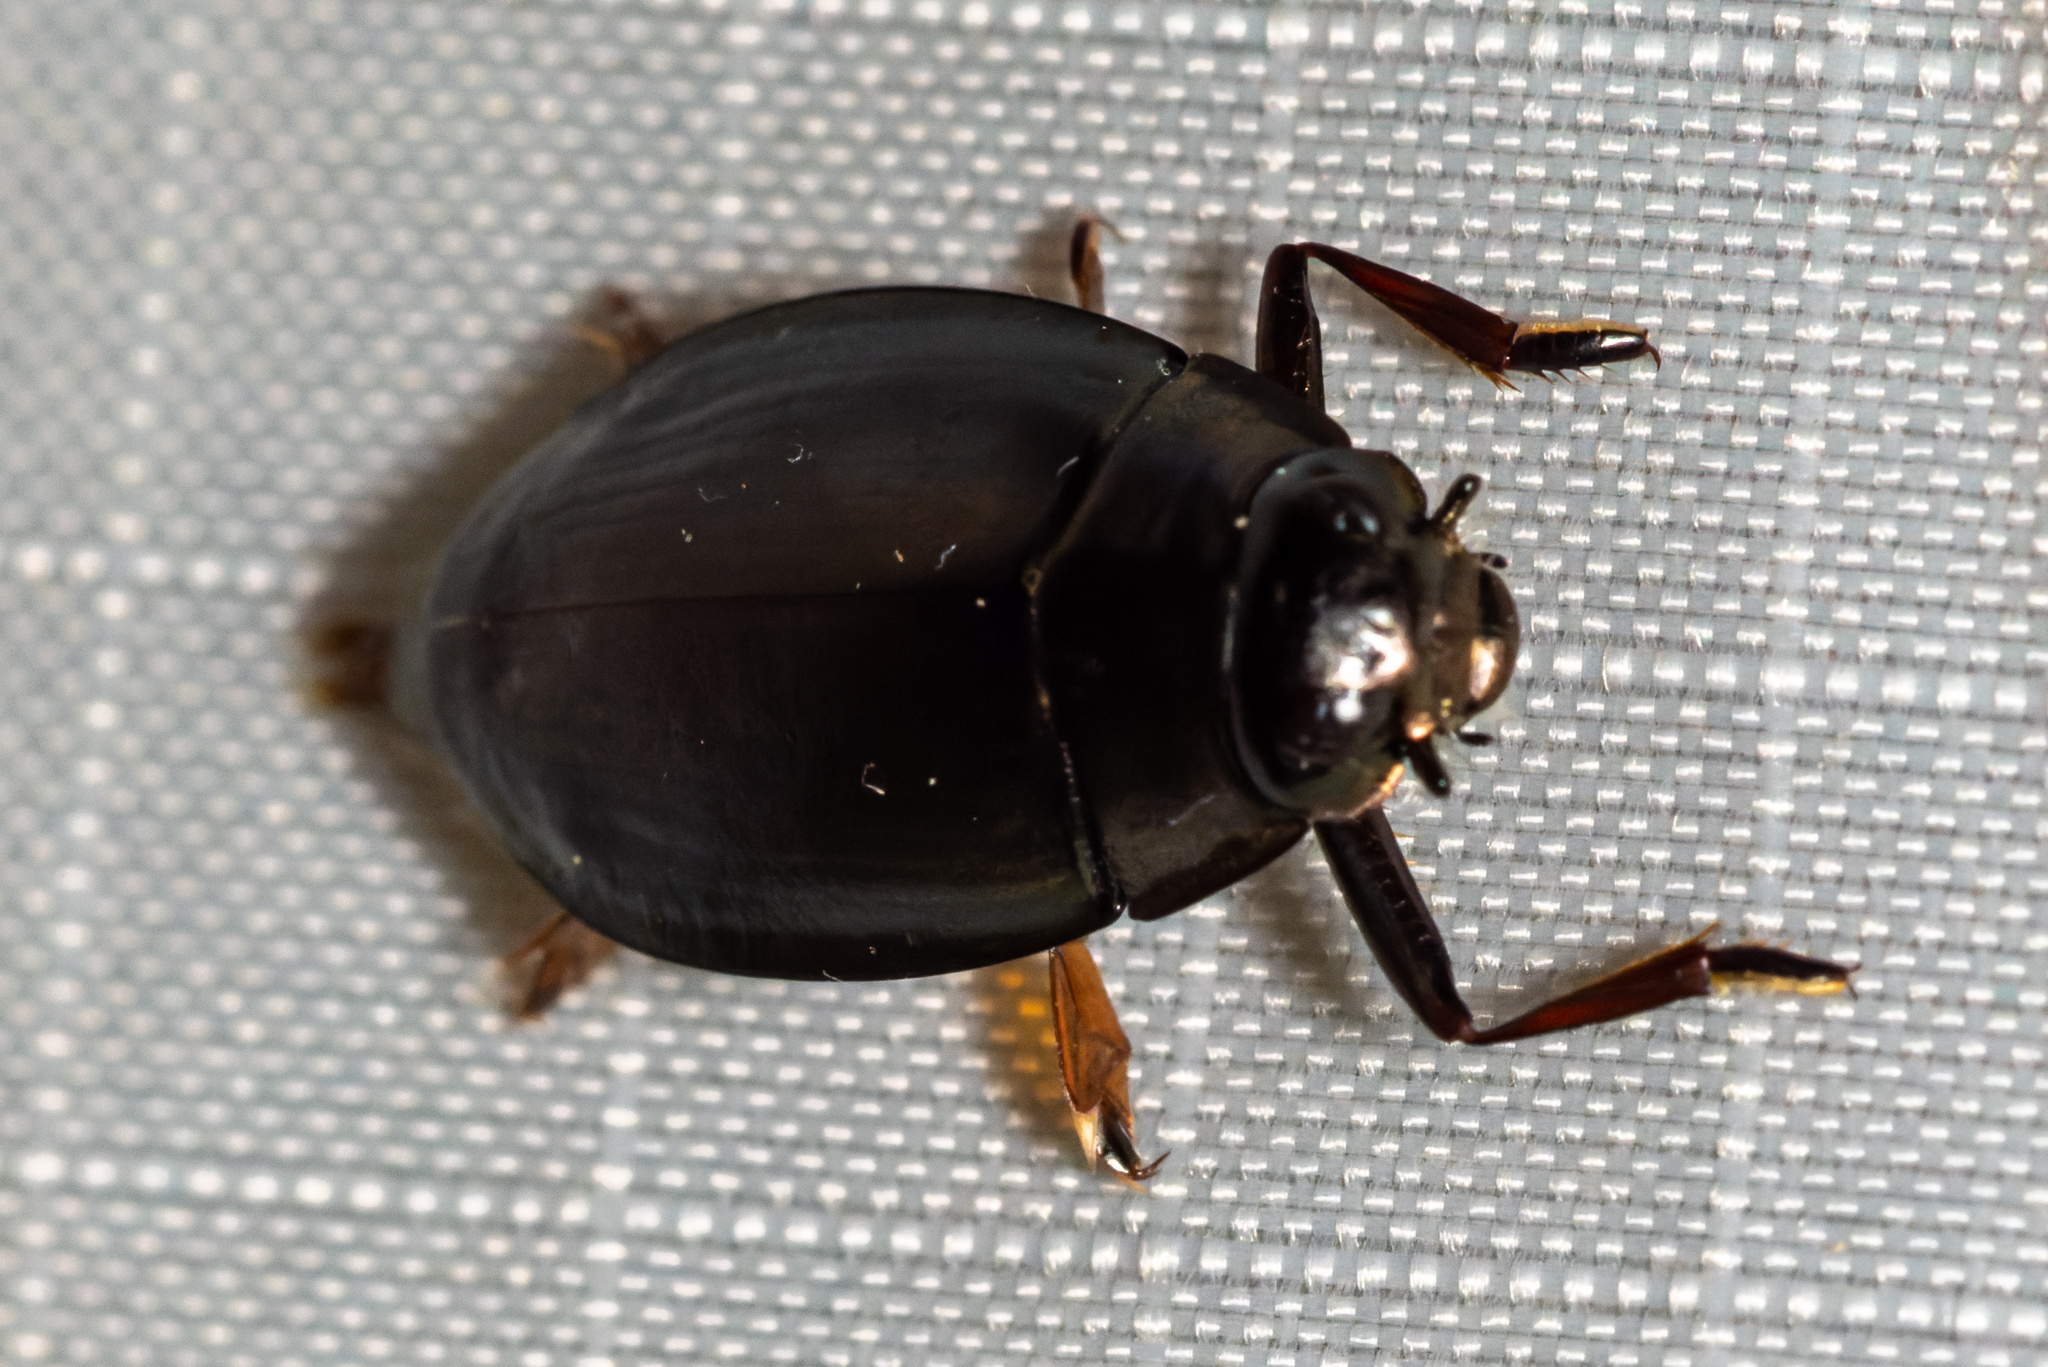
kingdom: Animalia
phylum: Arthropoda
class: Insecta
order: Coleoptera
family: Gyrinidae
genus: Dineutus
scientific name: Dineutus
